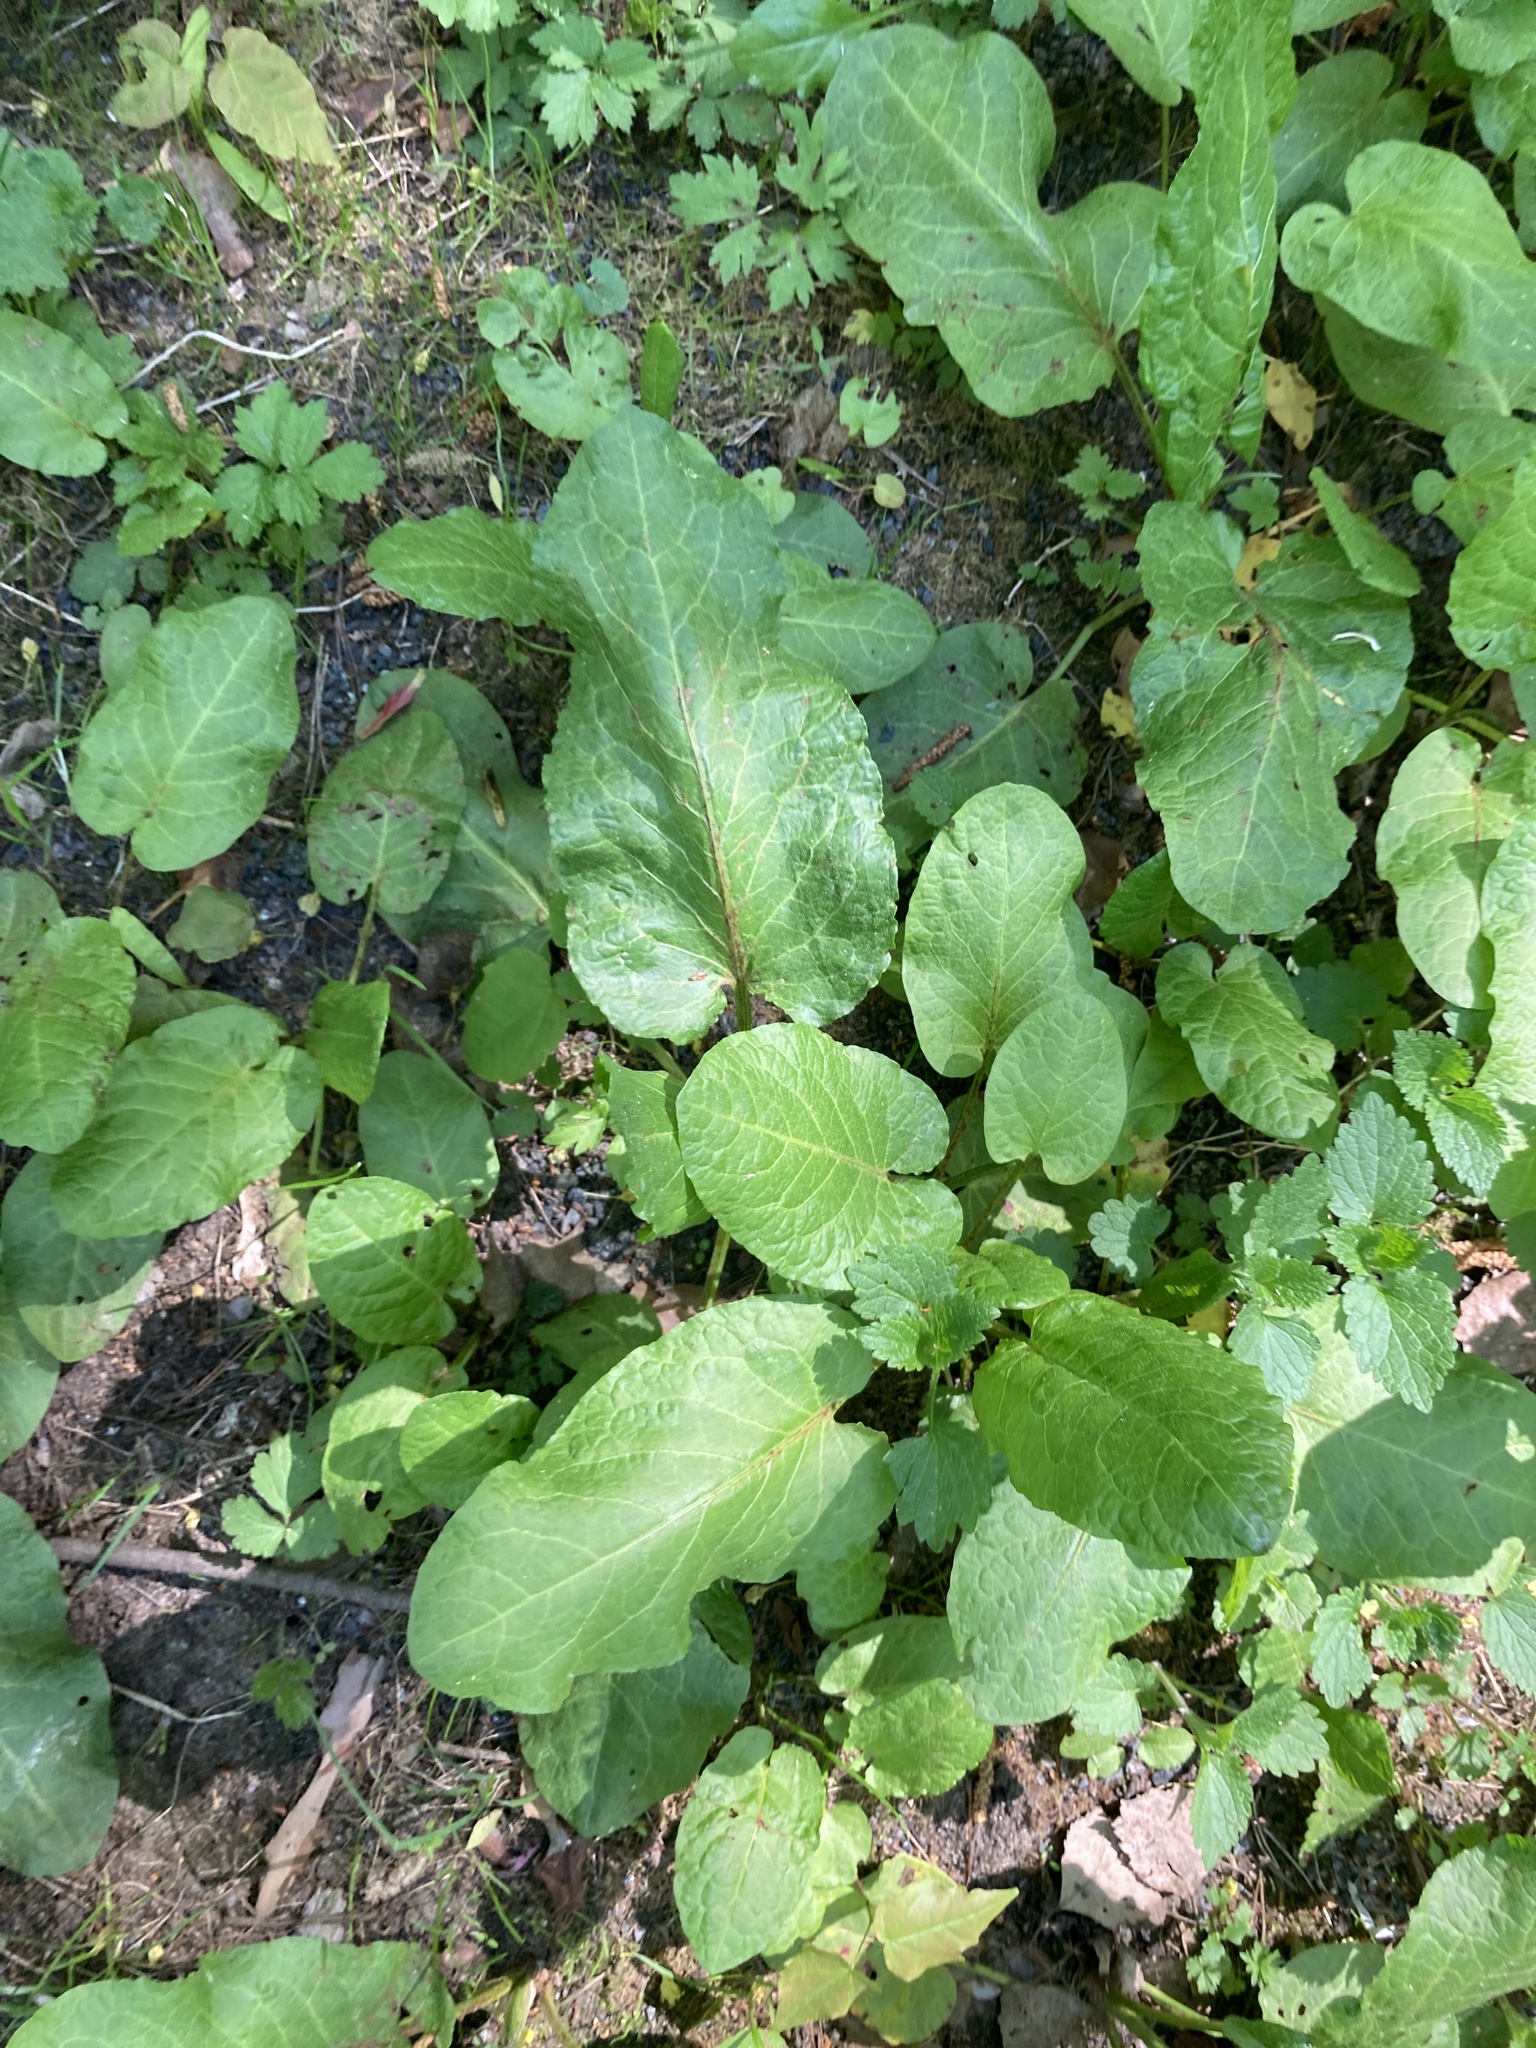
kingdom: Plantae
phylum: Tracheophyta
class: Magnoliopsida
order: Caryophyllales
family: Polygonaceae
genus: Rumex
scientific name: Rumex obtusifolius
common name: Bitter dock
